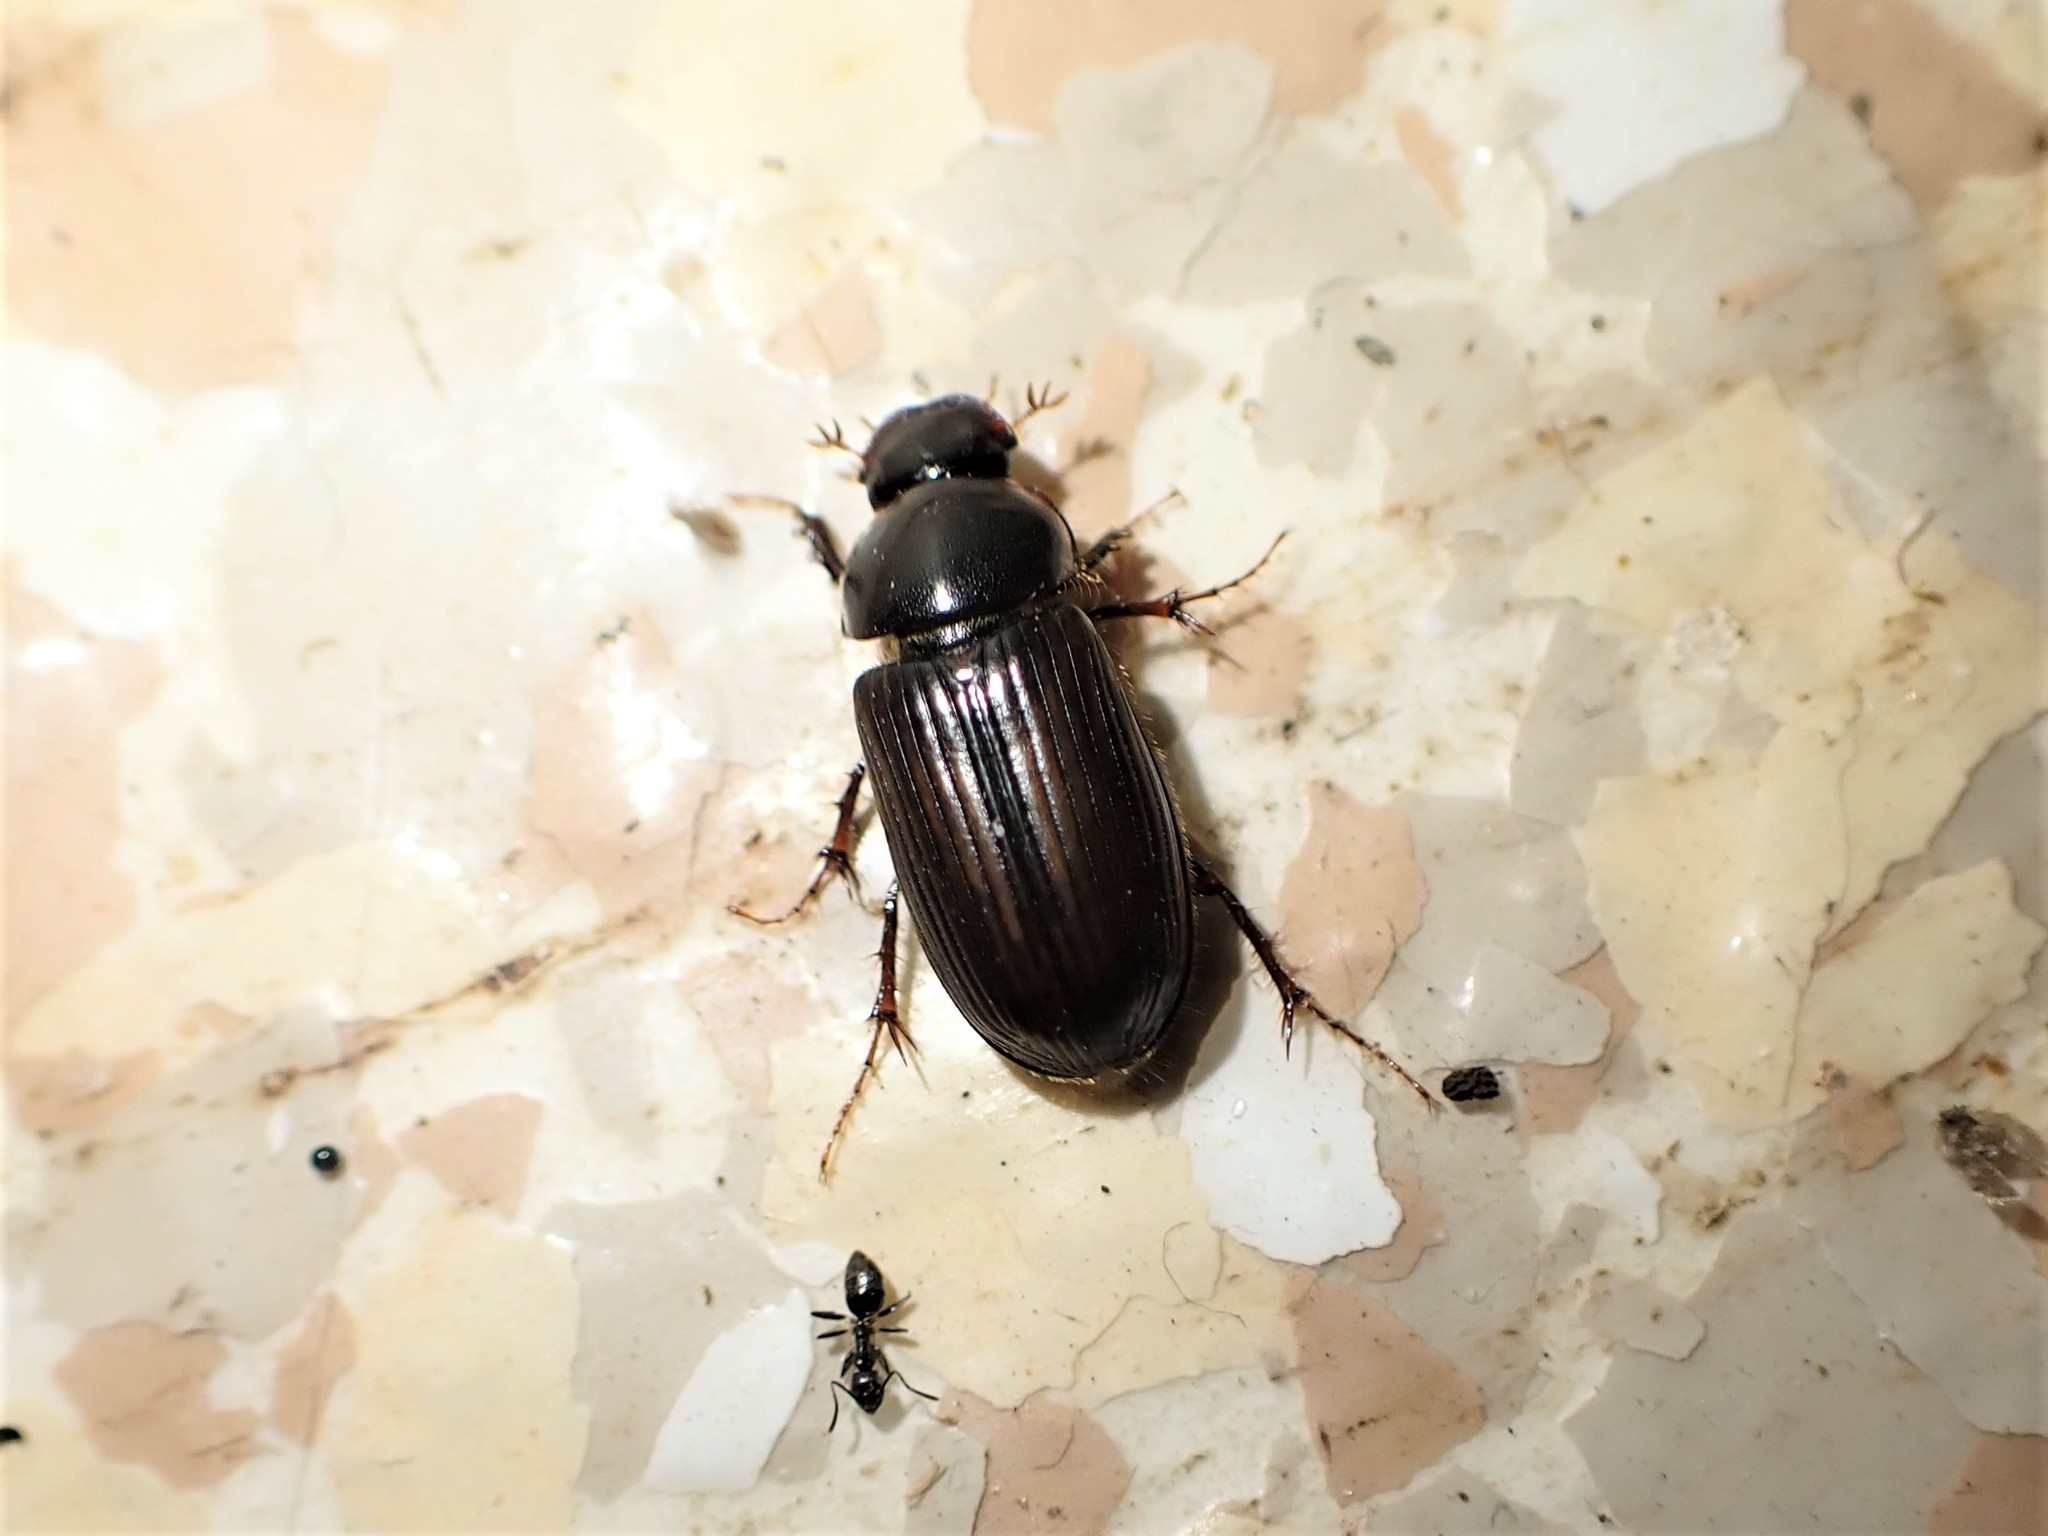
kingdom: Animalia
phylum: Arthropoda
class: Insecta
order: Coleoptera
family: Scarabaeidae
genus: Acrossidius
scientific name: Acrossidius tasmaniae
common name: Black-headed pasture cockchafer
